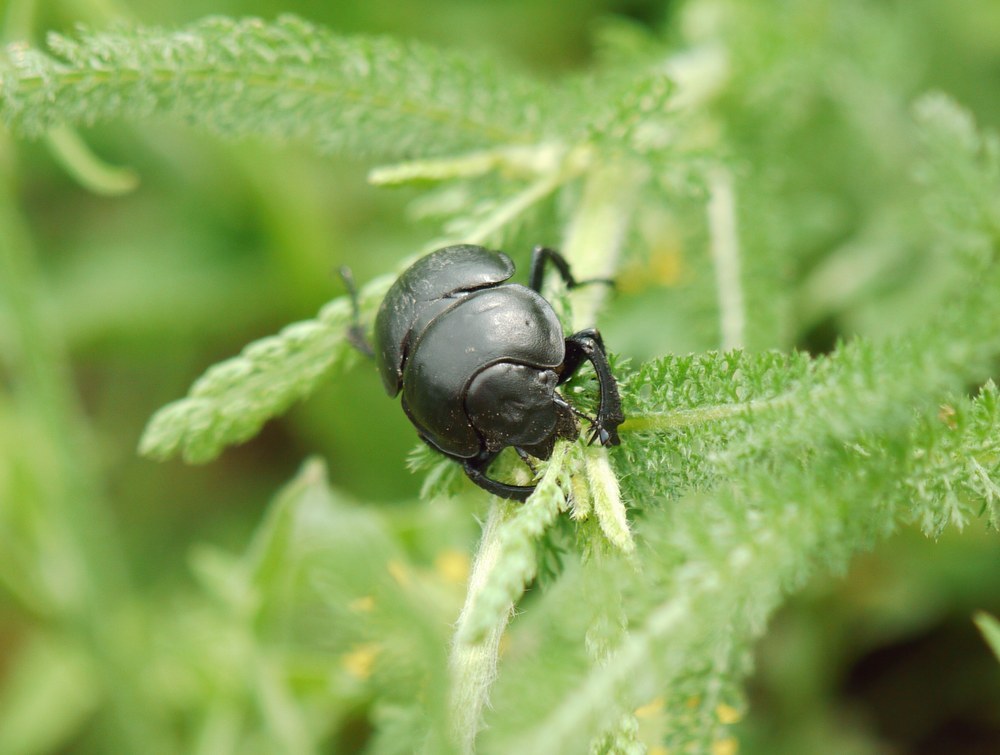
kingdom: Animalia
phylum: Arthropoda
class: Insecta
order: Coleoptera
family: Geotrupidae
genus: Lethrus
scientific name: Lethrus apterus
